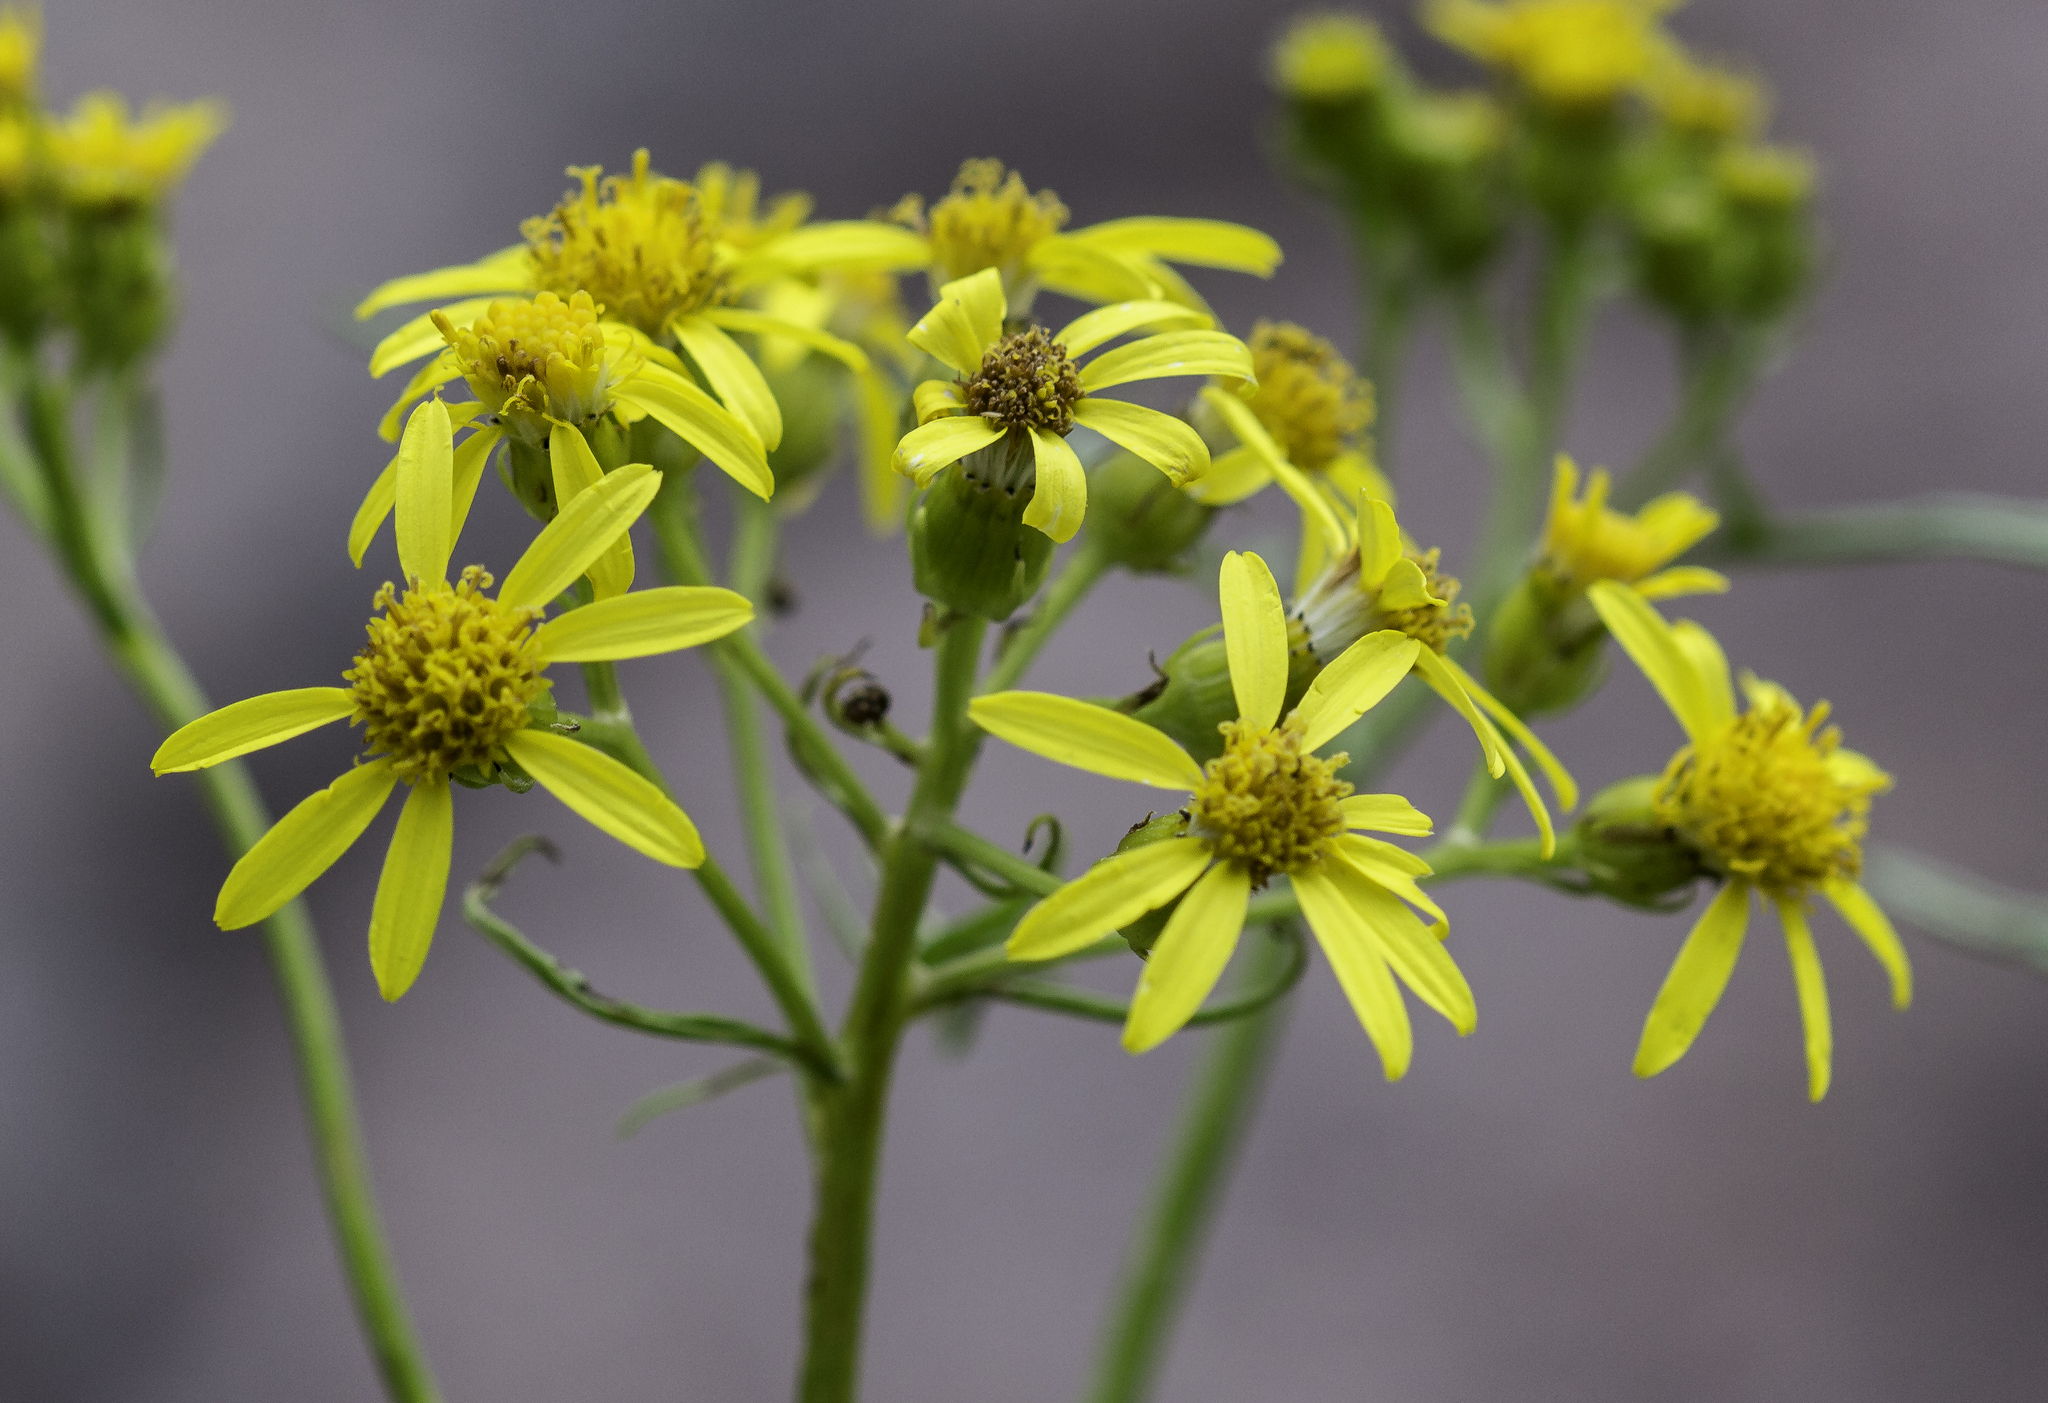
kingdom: Plantae
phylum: Tracheophyta
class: Magnoliopsida
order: Asterales
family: Asteraceae
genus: Senecio
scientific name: Senecio eremophilus
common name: Desert ragwort
